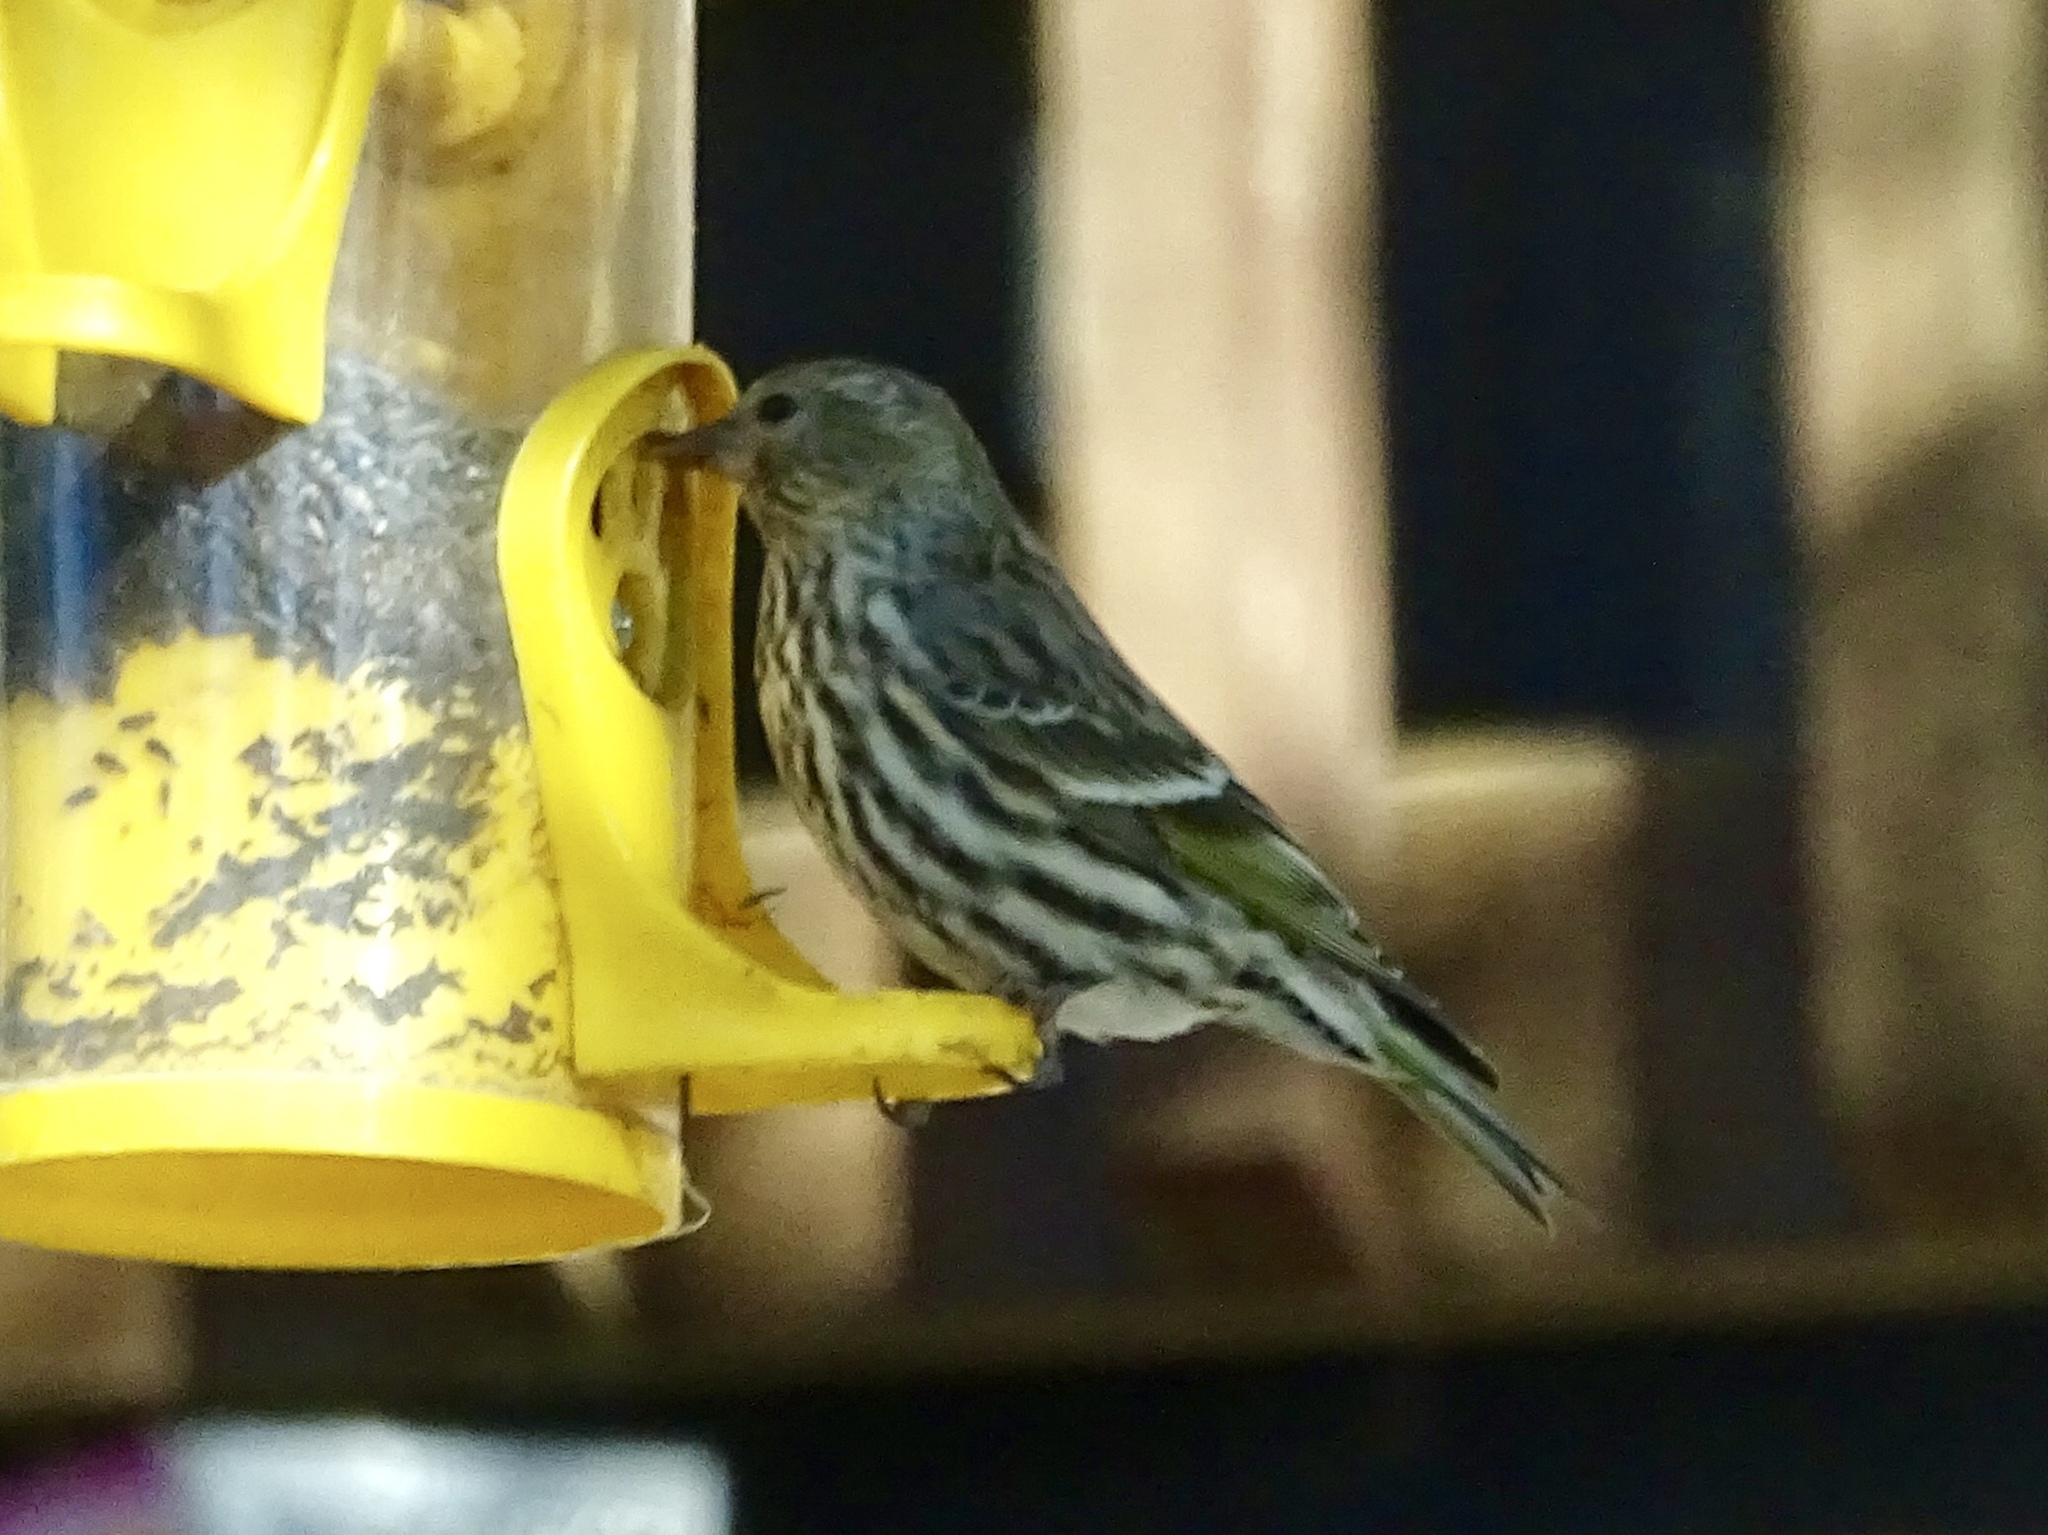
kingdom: Animalia
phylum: Chordata
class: Aves
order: Passeriformes
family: Fringillidae
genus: Spinus
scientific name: Spinus pinus
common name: Pine siskin
